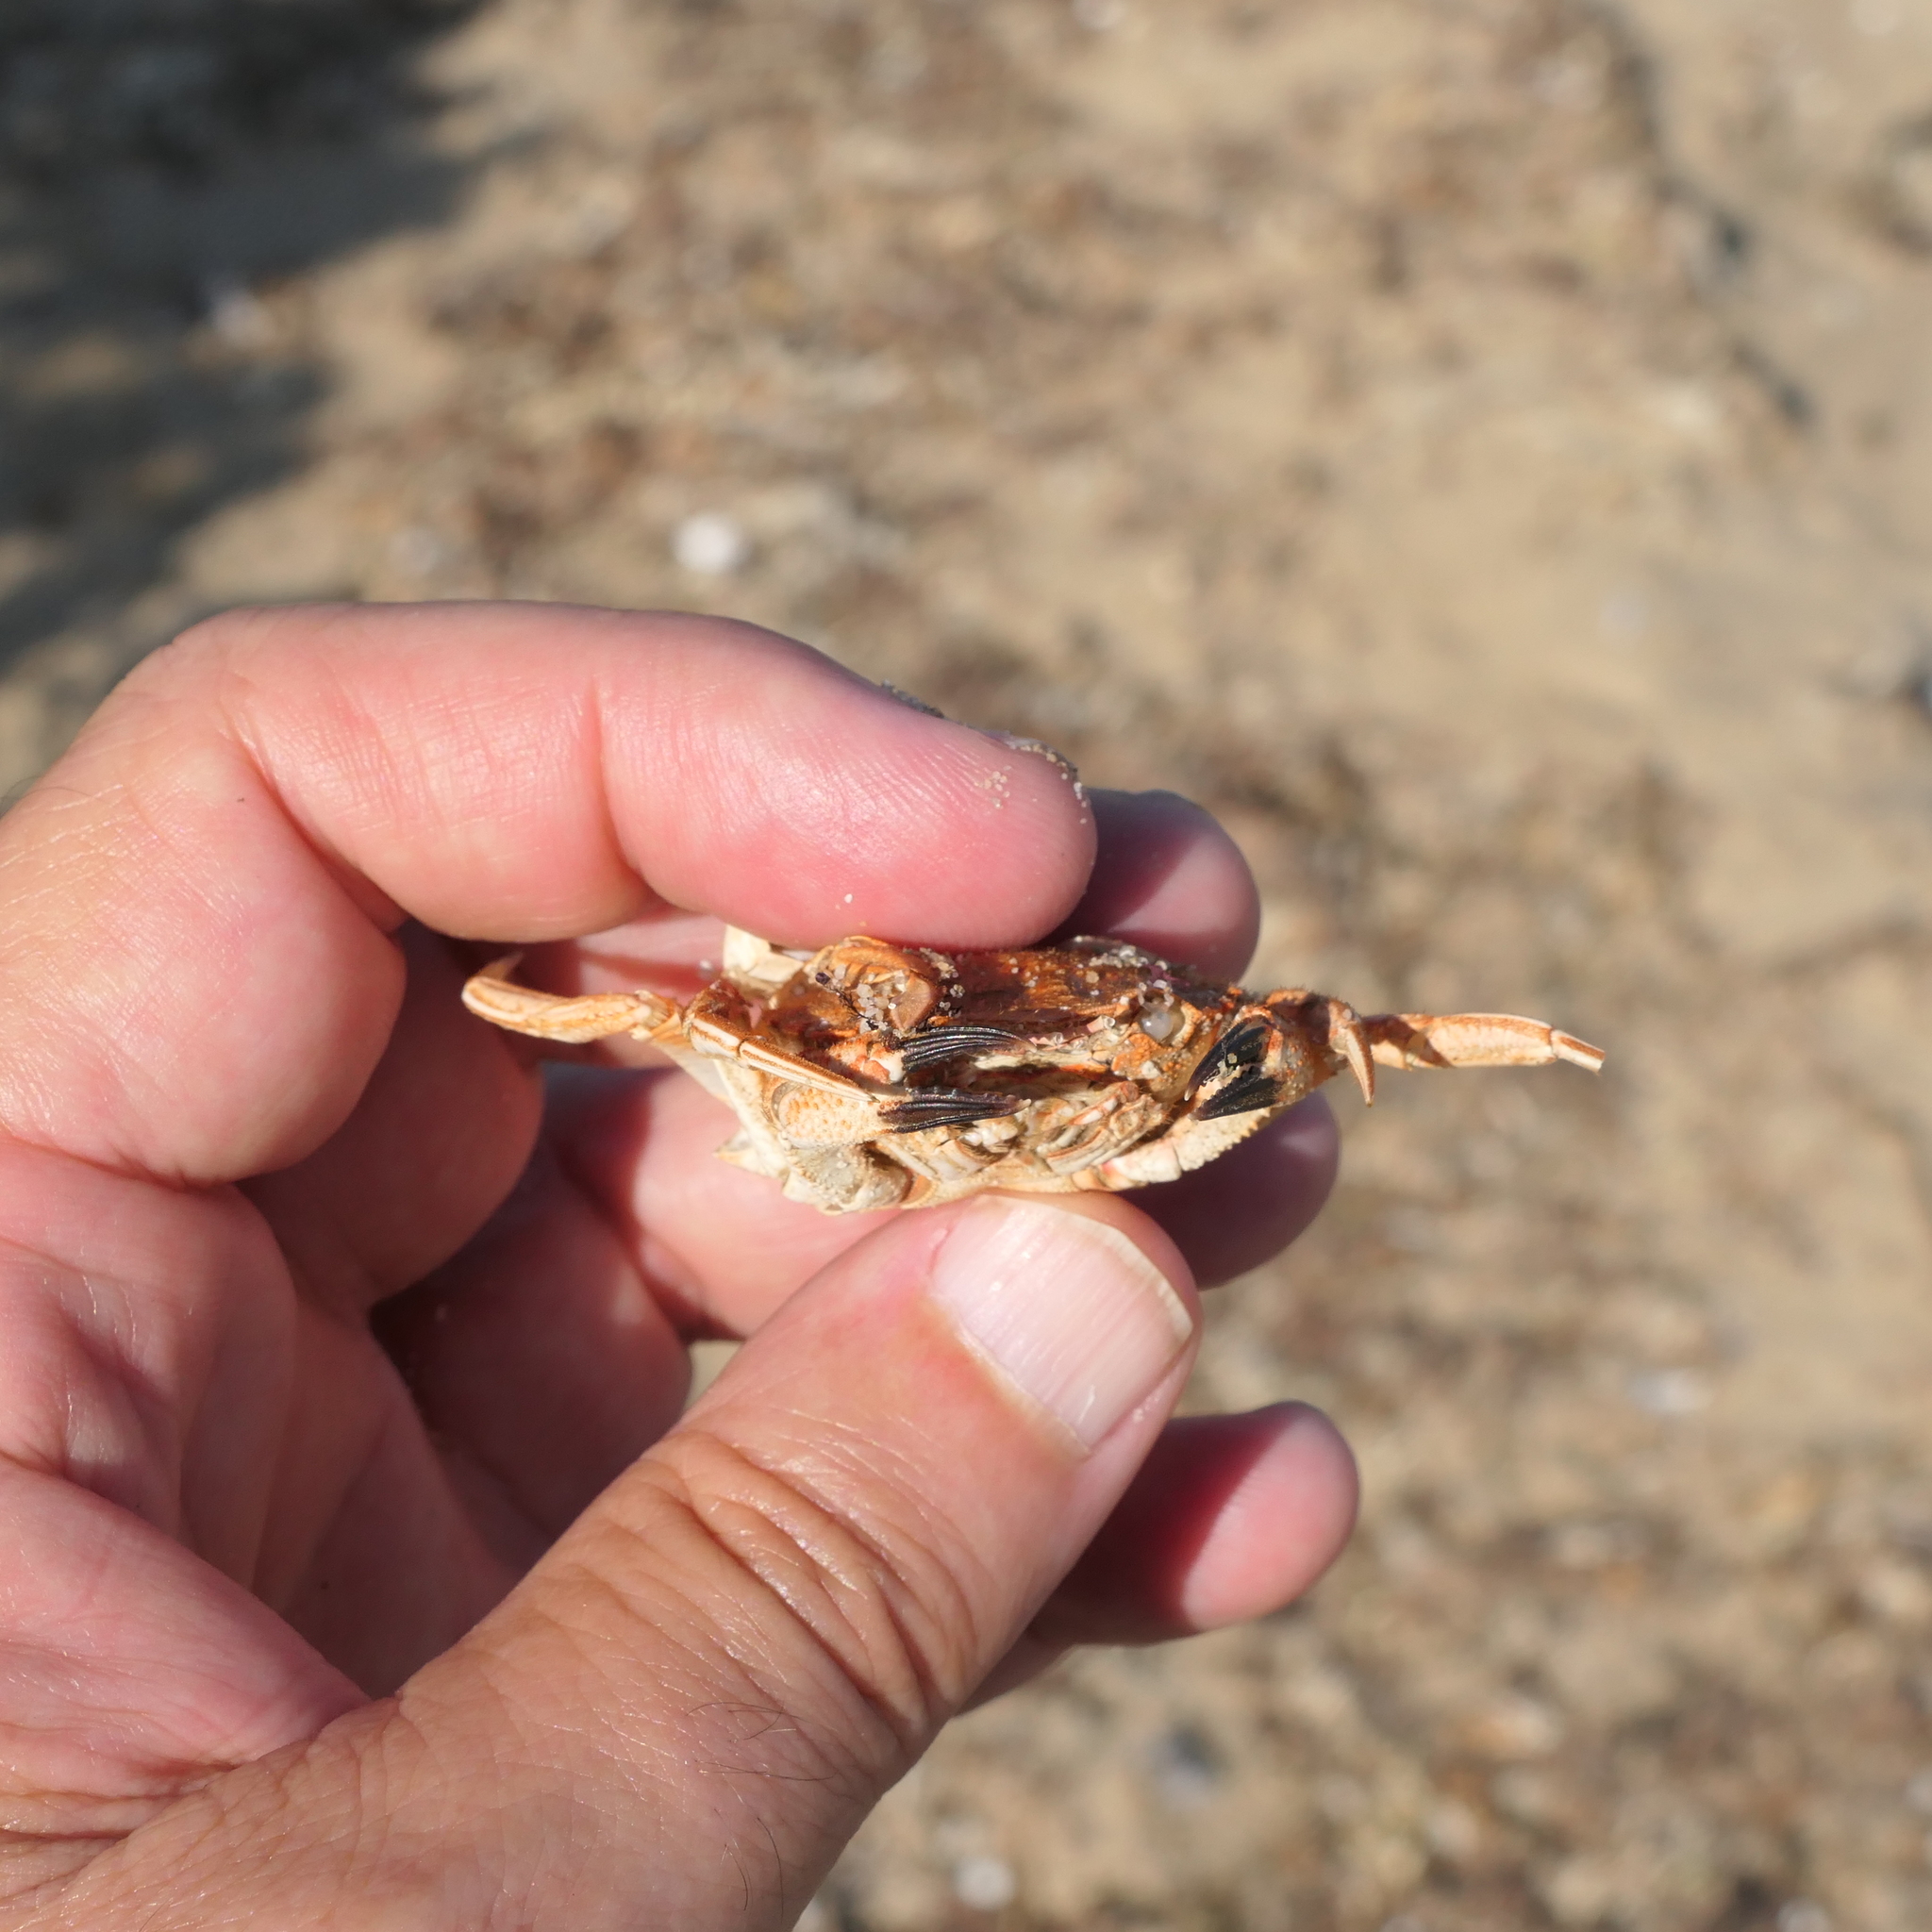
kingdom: Animalia
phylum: Arthropoda
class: Malacostraca
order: Decapoda
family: Geryonidae
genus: Nectocarcinus
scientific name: Nectocarcinus integrifrons
